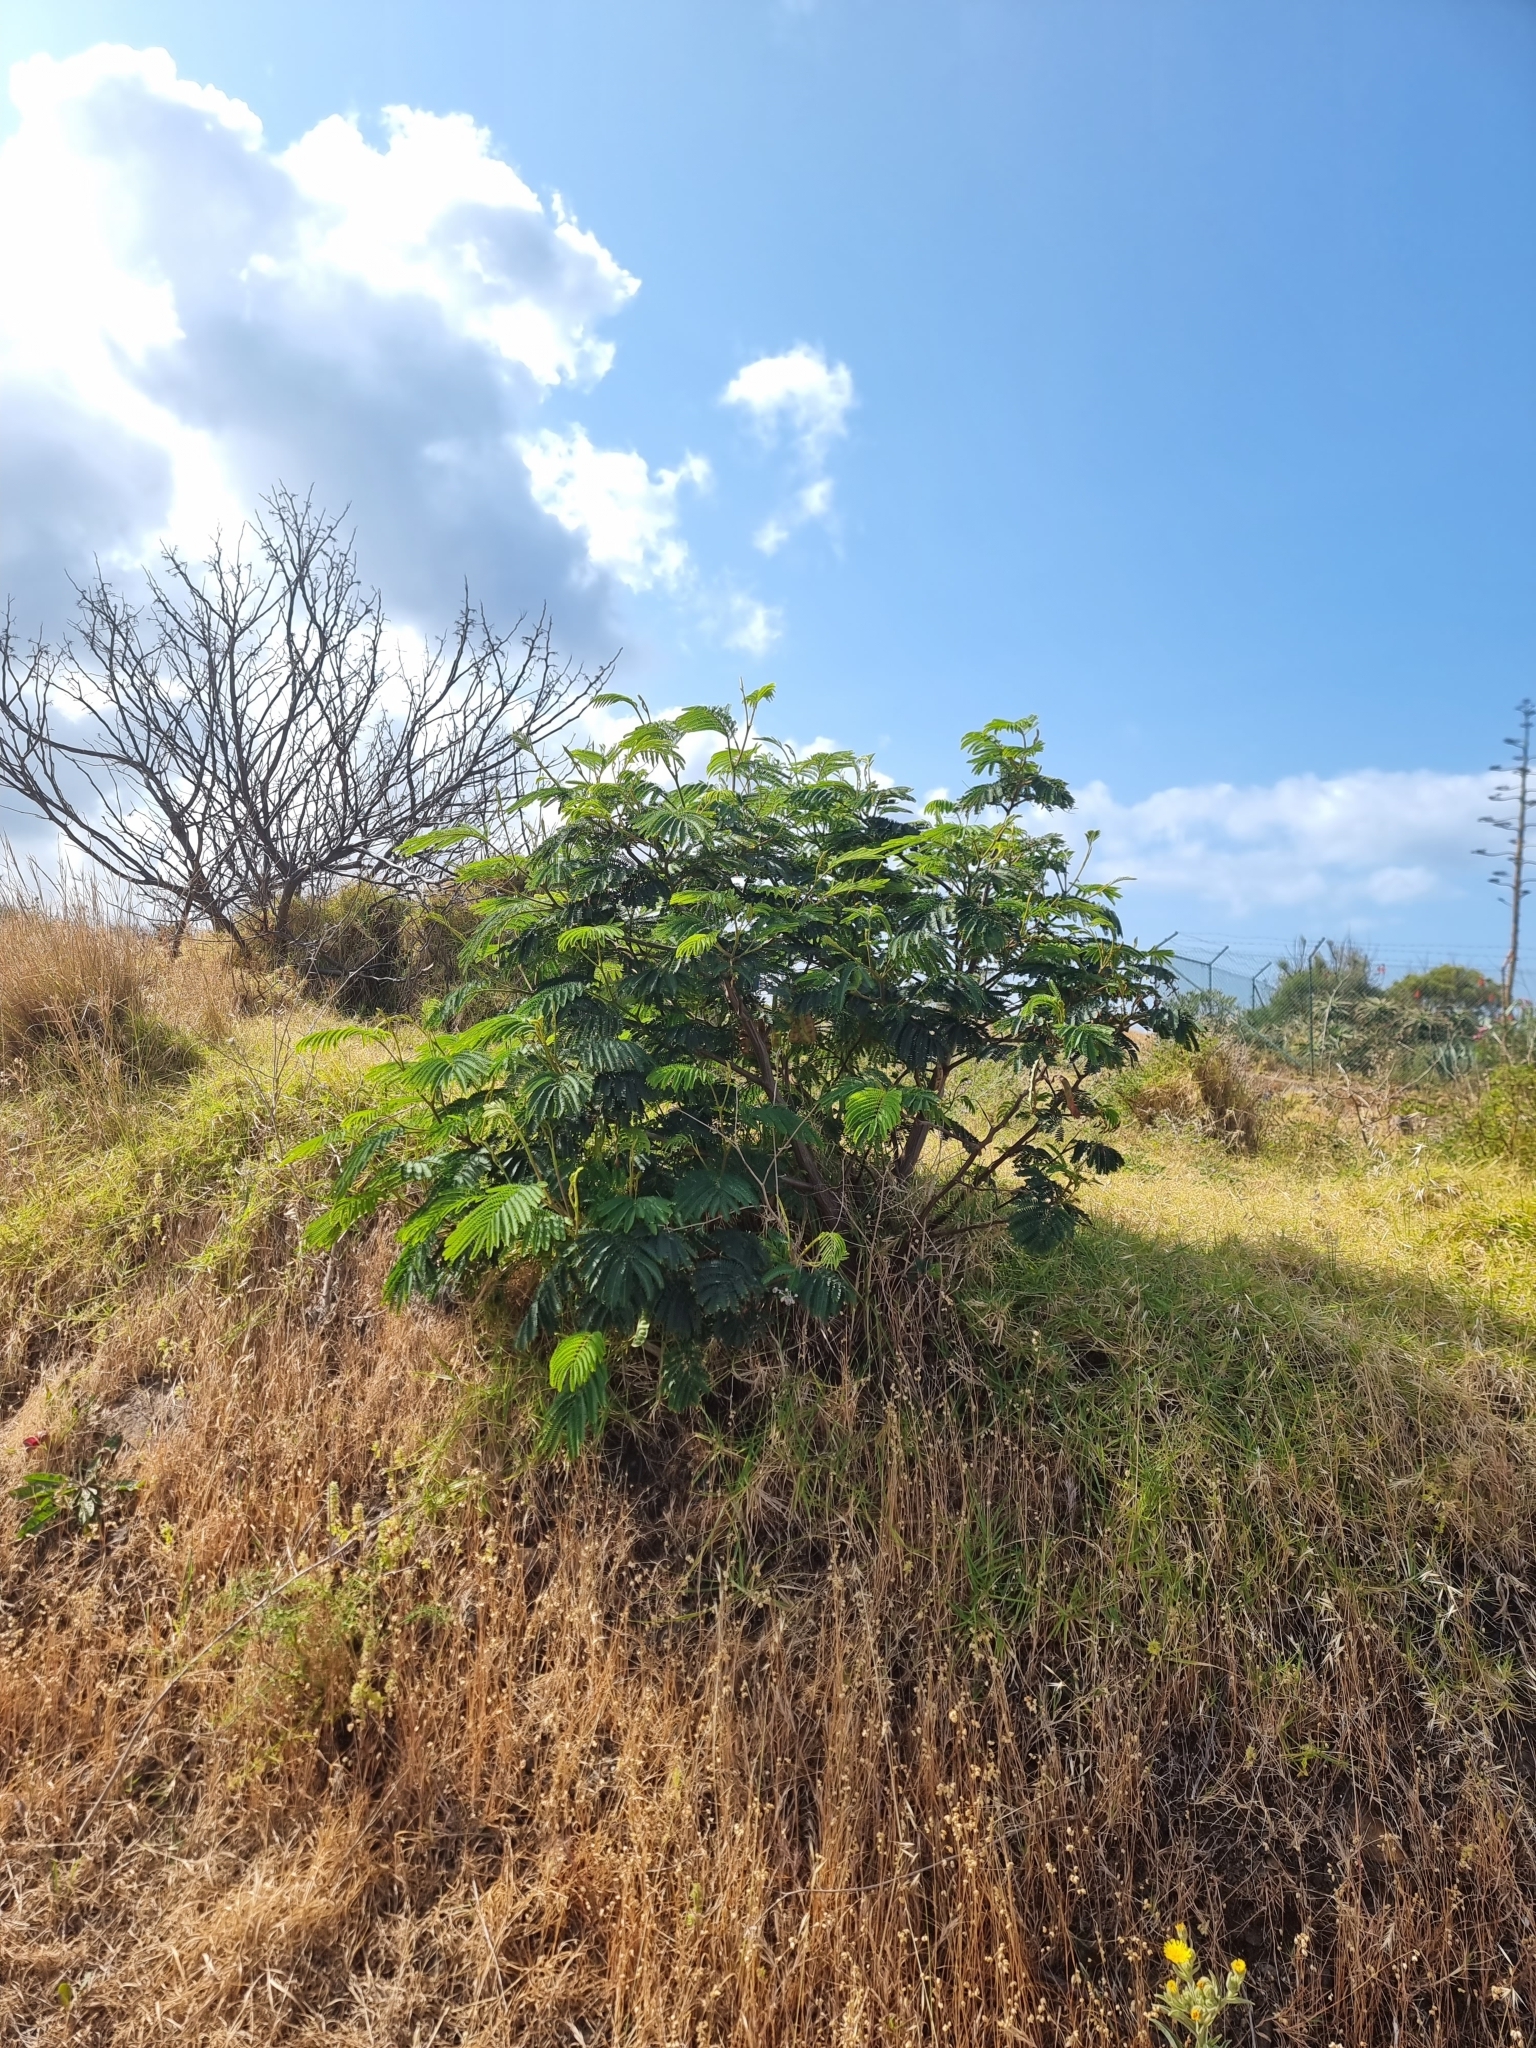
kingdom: Plantae
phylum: Tracheophyta
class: Magnoliopsida
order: Fabales
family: Fabaceae
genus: Leucaena
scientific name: Leucaena leucocephala
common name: White leadtree
